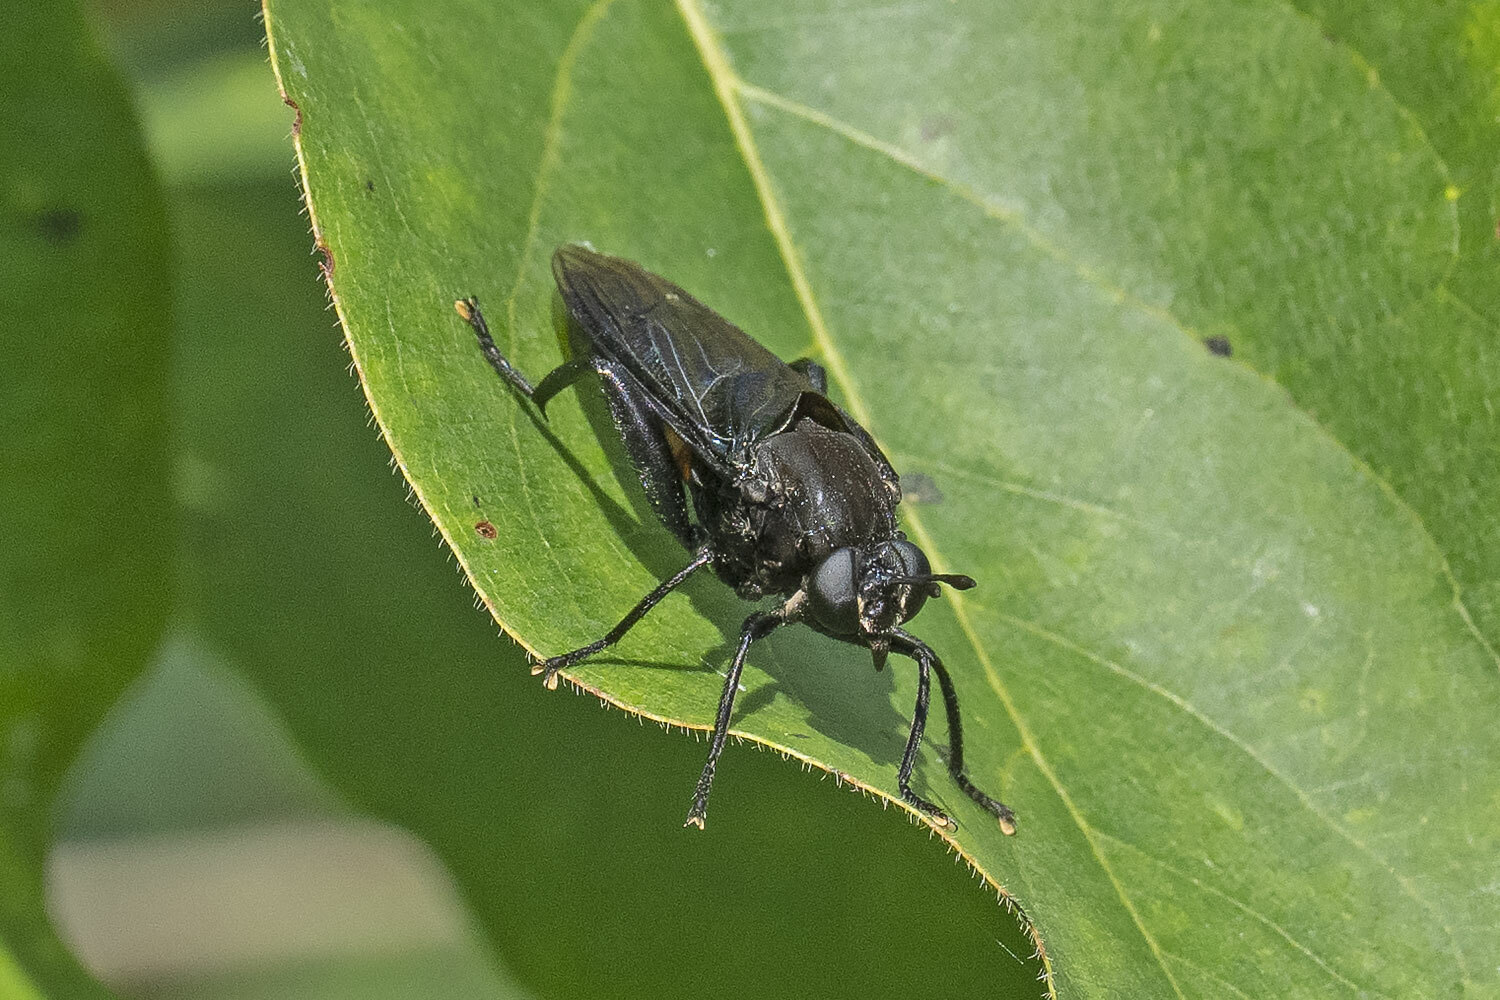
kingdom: Animalia
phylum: Arthropoda
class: Insecta
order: Diptera
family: Mydidae
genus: Mydas
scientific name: Mydas clavatus
